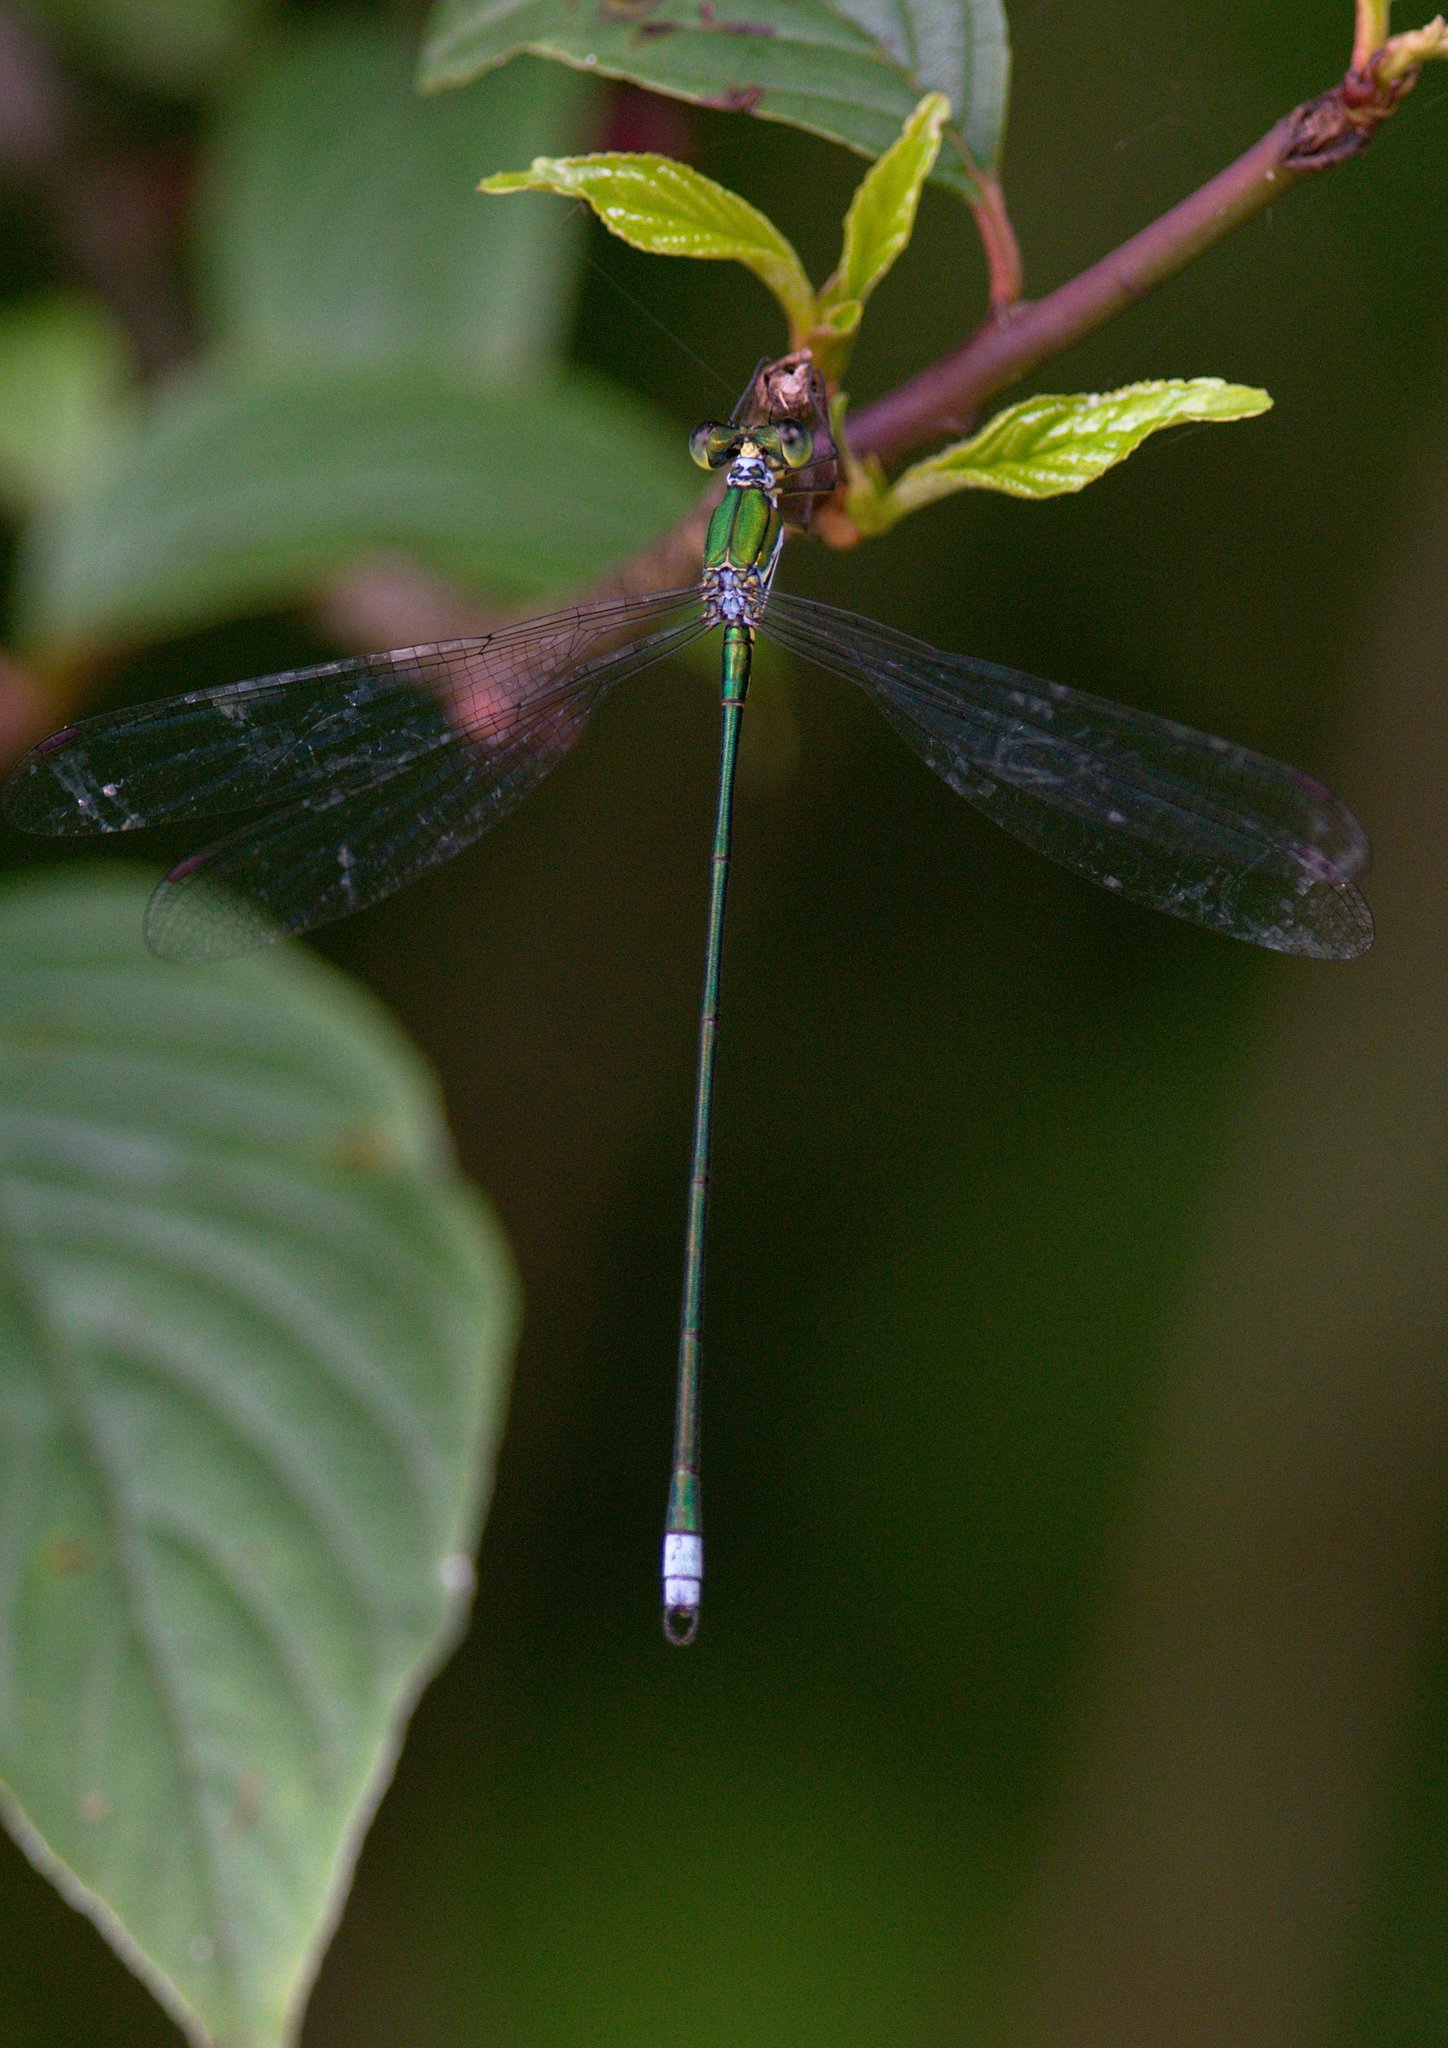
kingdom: Animalia
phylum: Arthropoda
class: Insecta
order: Odonata
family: Synlestidae
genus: Megalestes
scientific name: Megalestes major
